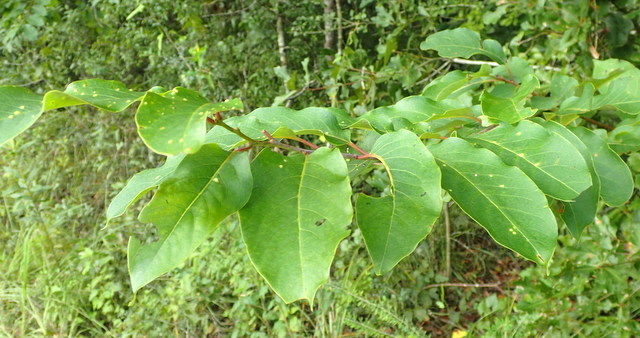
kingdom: Animalia
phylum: Arthropoda
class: Arachnida
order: Trombidiformes
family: Eriophyidae
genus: Aceria
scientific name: Aceria
